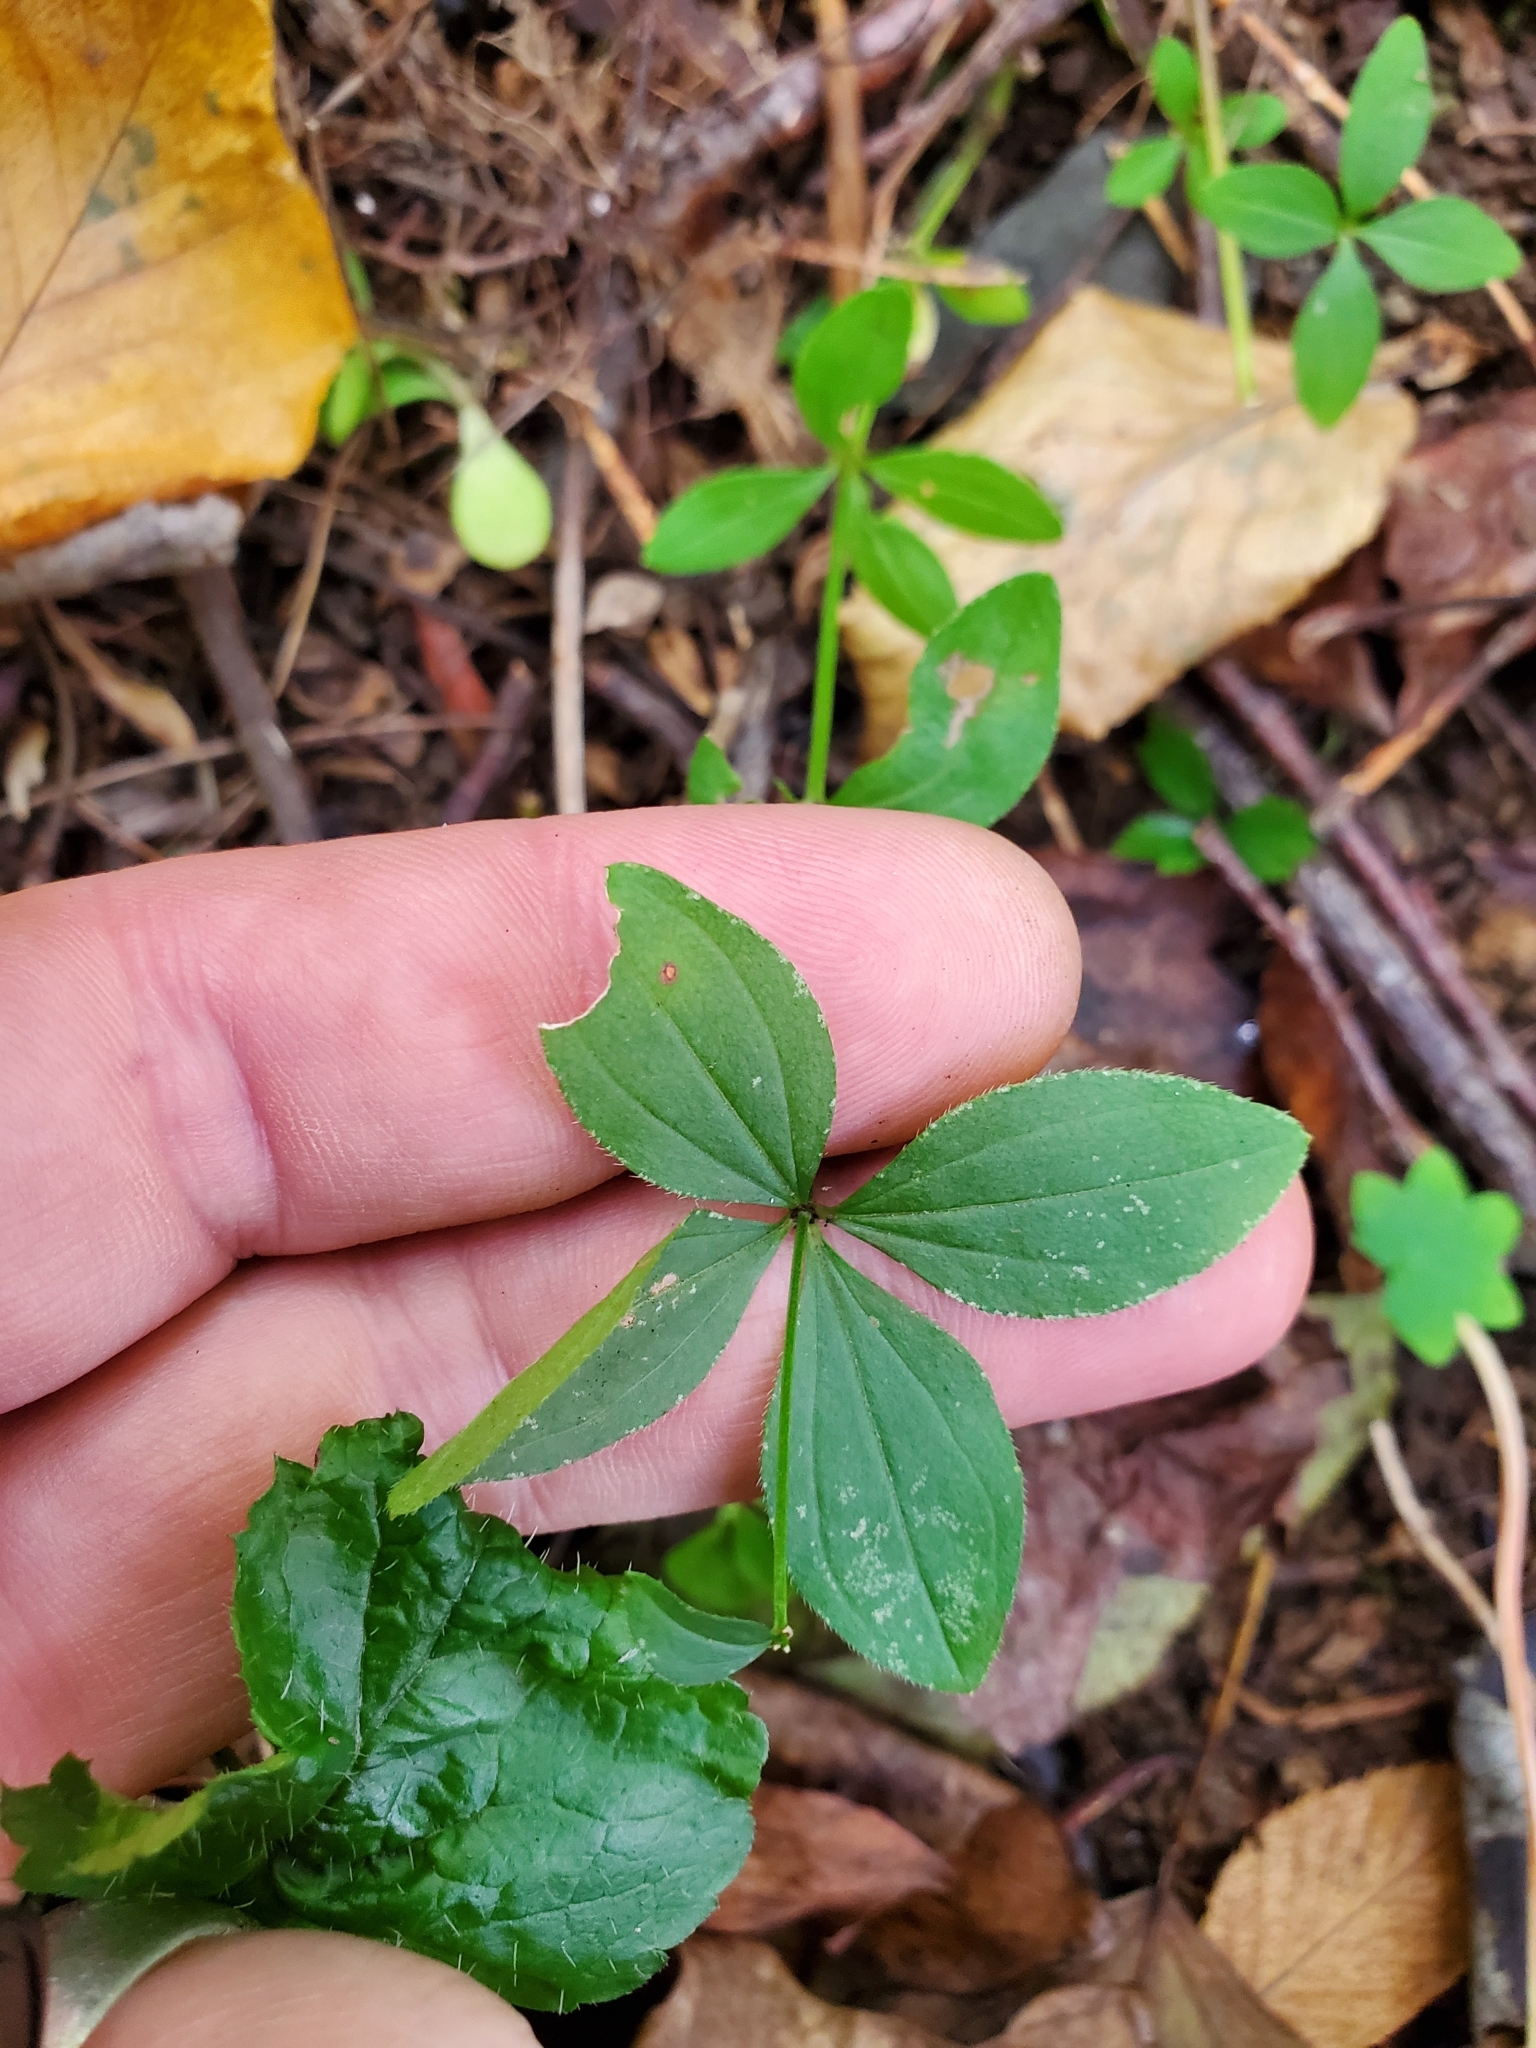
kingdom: Plantae
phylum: Tracheophyta
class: Magnoliopsida
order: Gentianales
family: Rubiaceae
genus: Galium
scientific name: Galium circaezans
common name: Forest bedstraw
